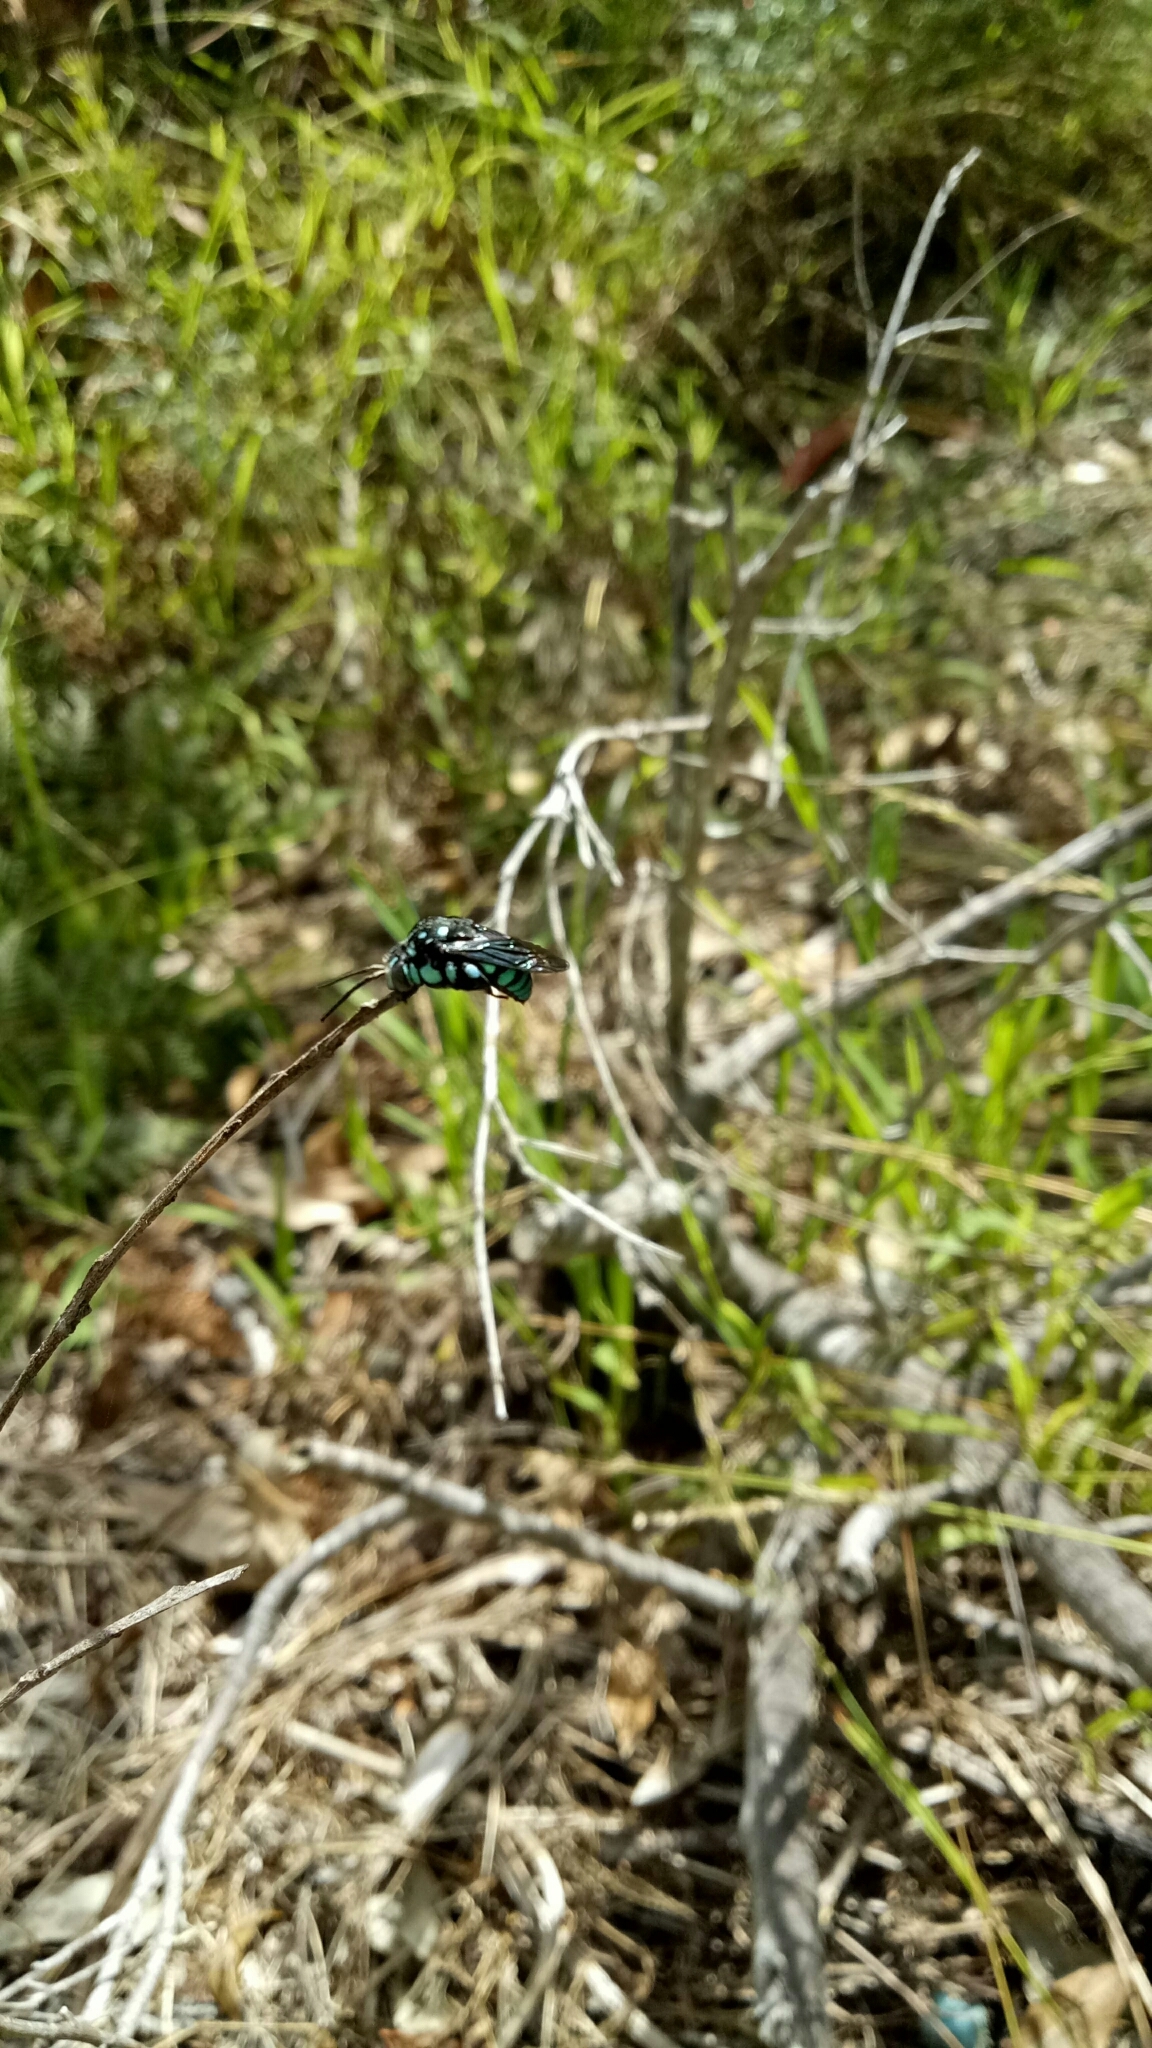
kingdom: Animalia
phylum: Arthropoda
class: Insecta
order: Hymenoptera
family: Apidae
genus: Thyreus
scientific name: Thyreus nitidulus
